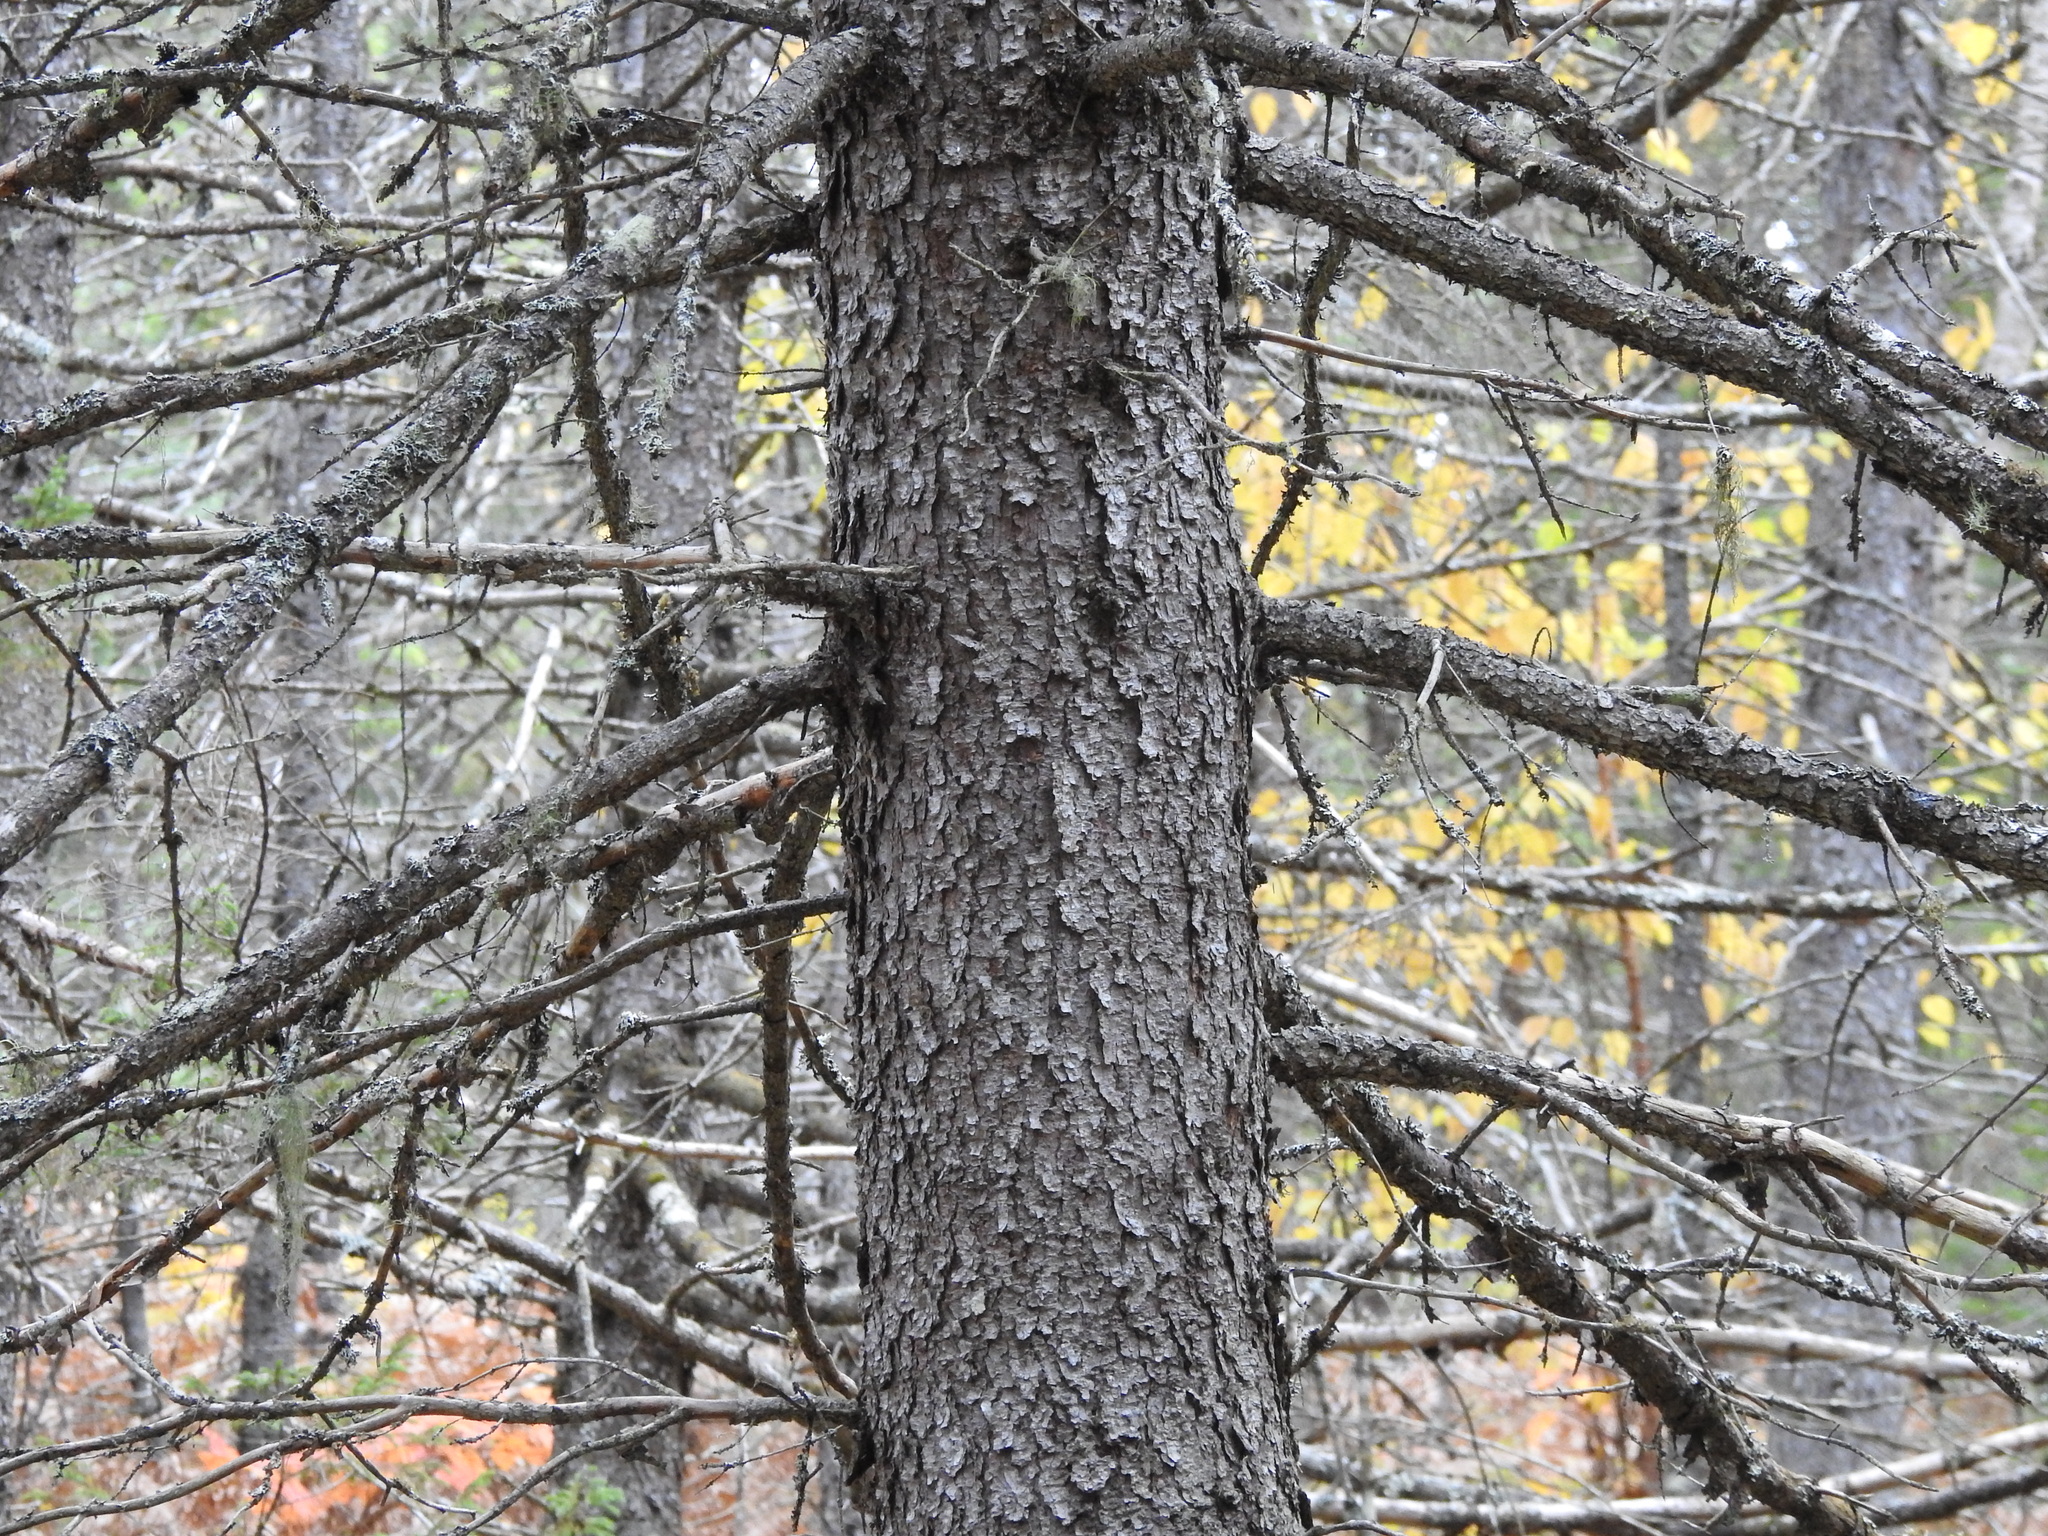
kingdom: Plantae
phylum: Tracheophyta
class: Pinopsida
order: Pinales
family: Pinaceae
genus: Picea
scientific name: Picea rubens
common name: Red spruce
